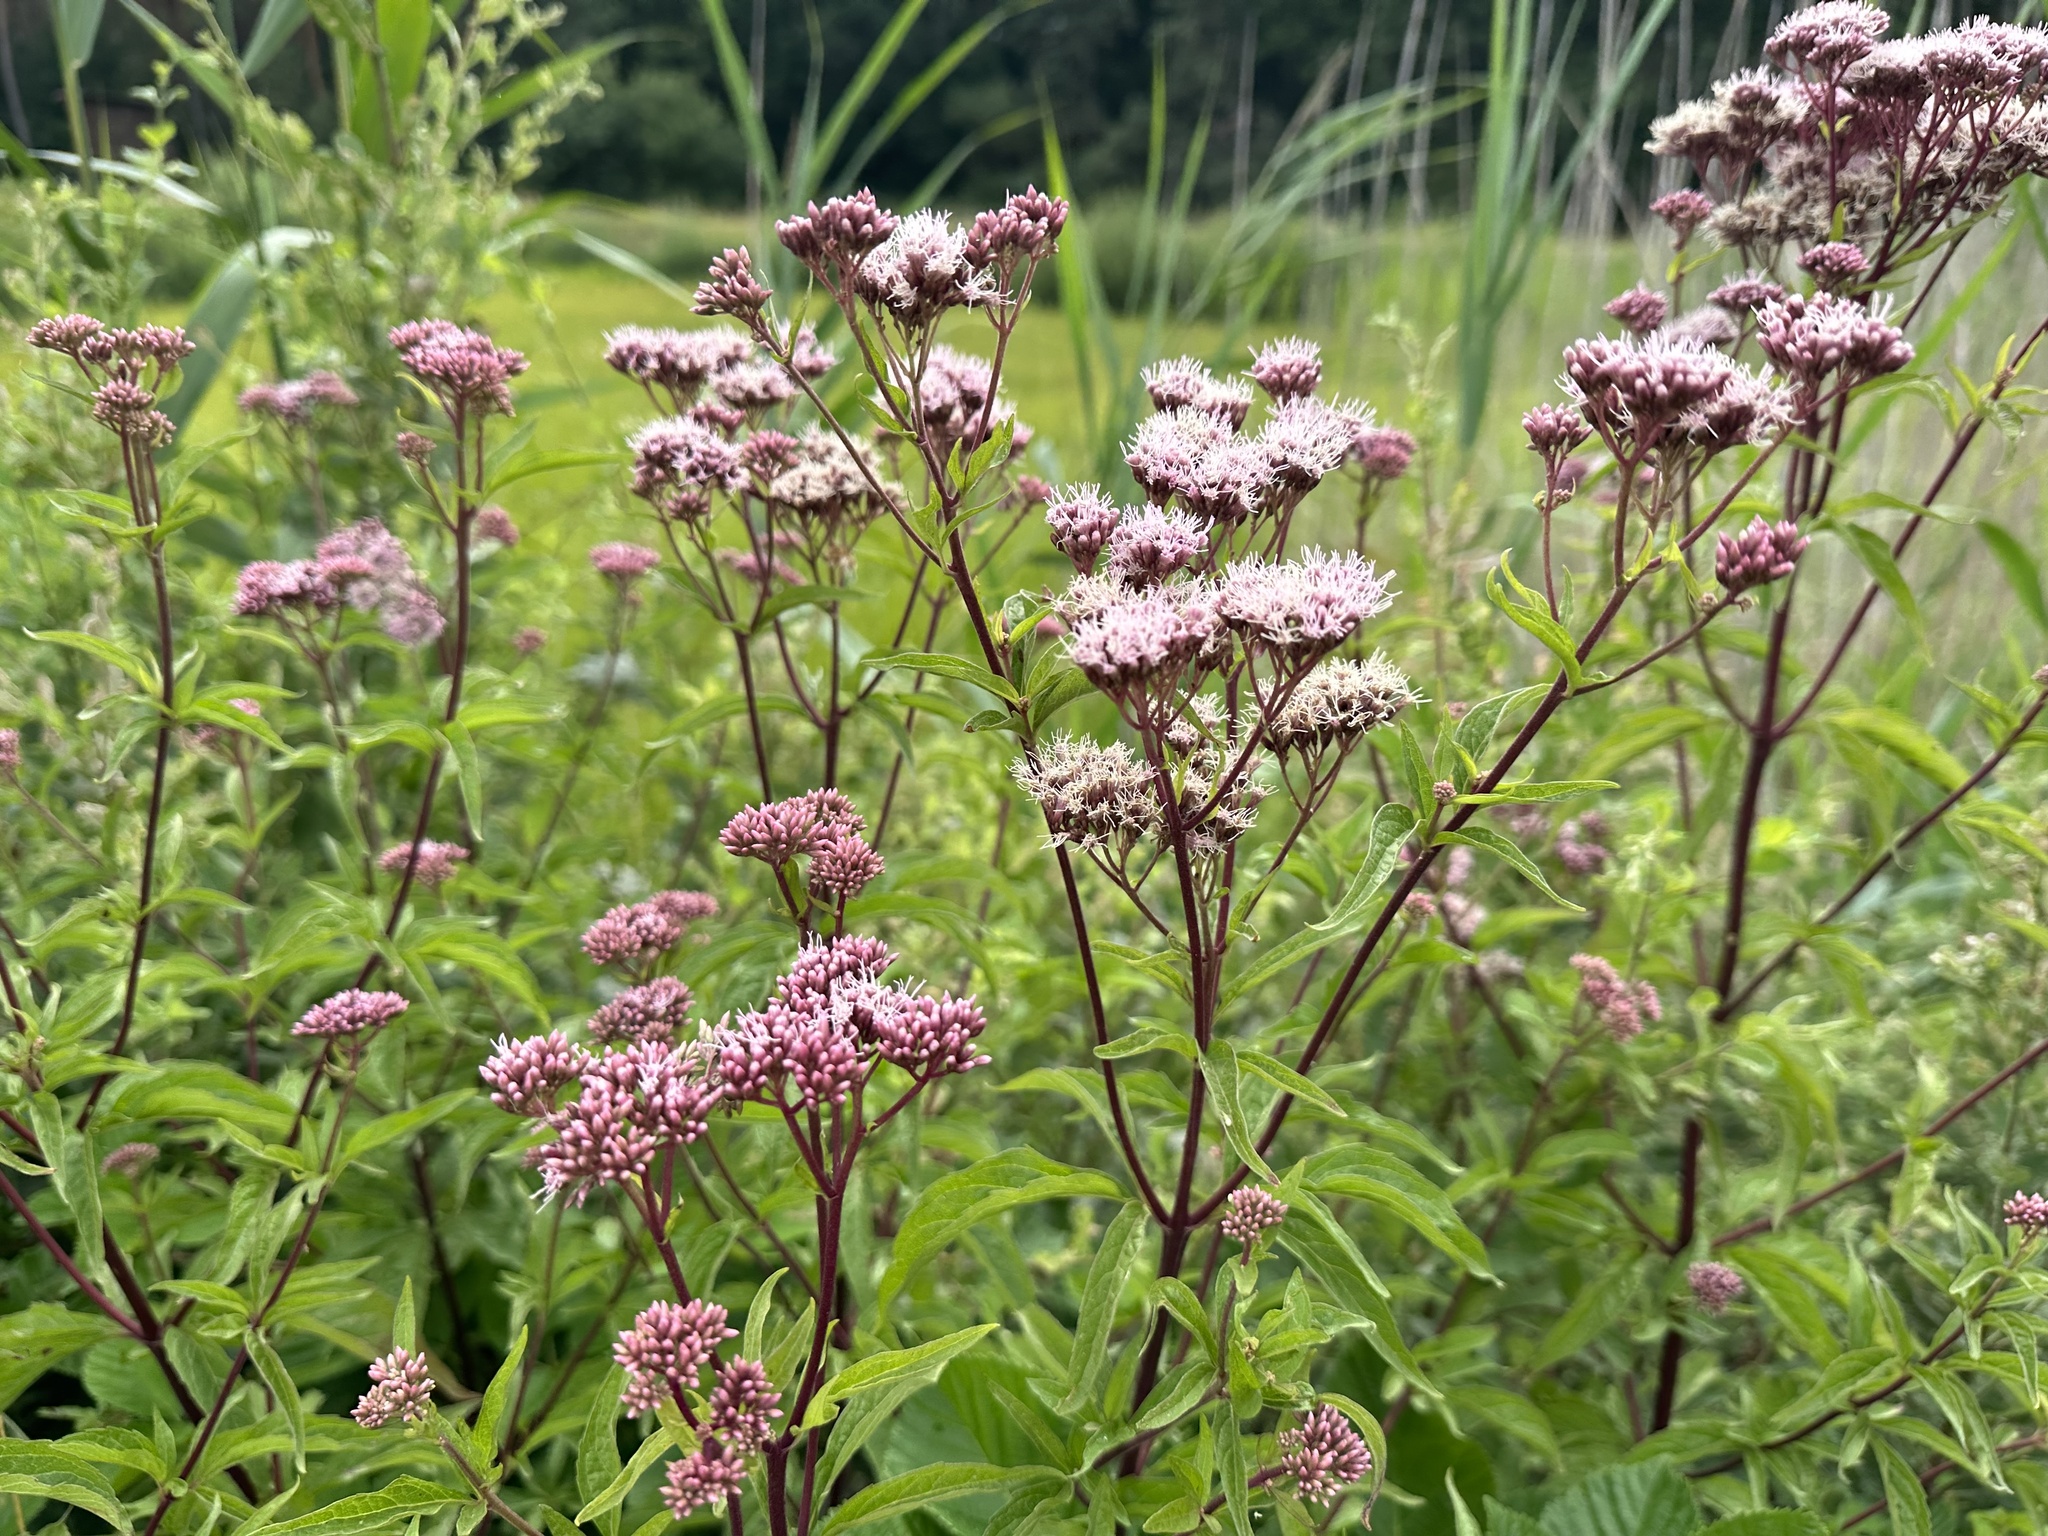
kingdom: Plantae
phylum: Tracheophyta
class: Magnoliopsida
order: Asterales
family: Asteraceae
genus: Eupatorium
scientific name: Eupatorium cannabinum
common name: Hemp-agrimony
